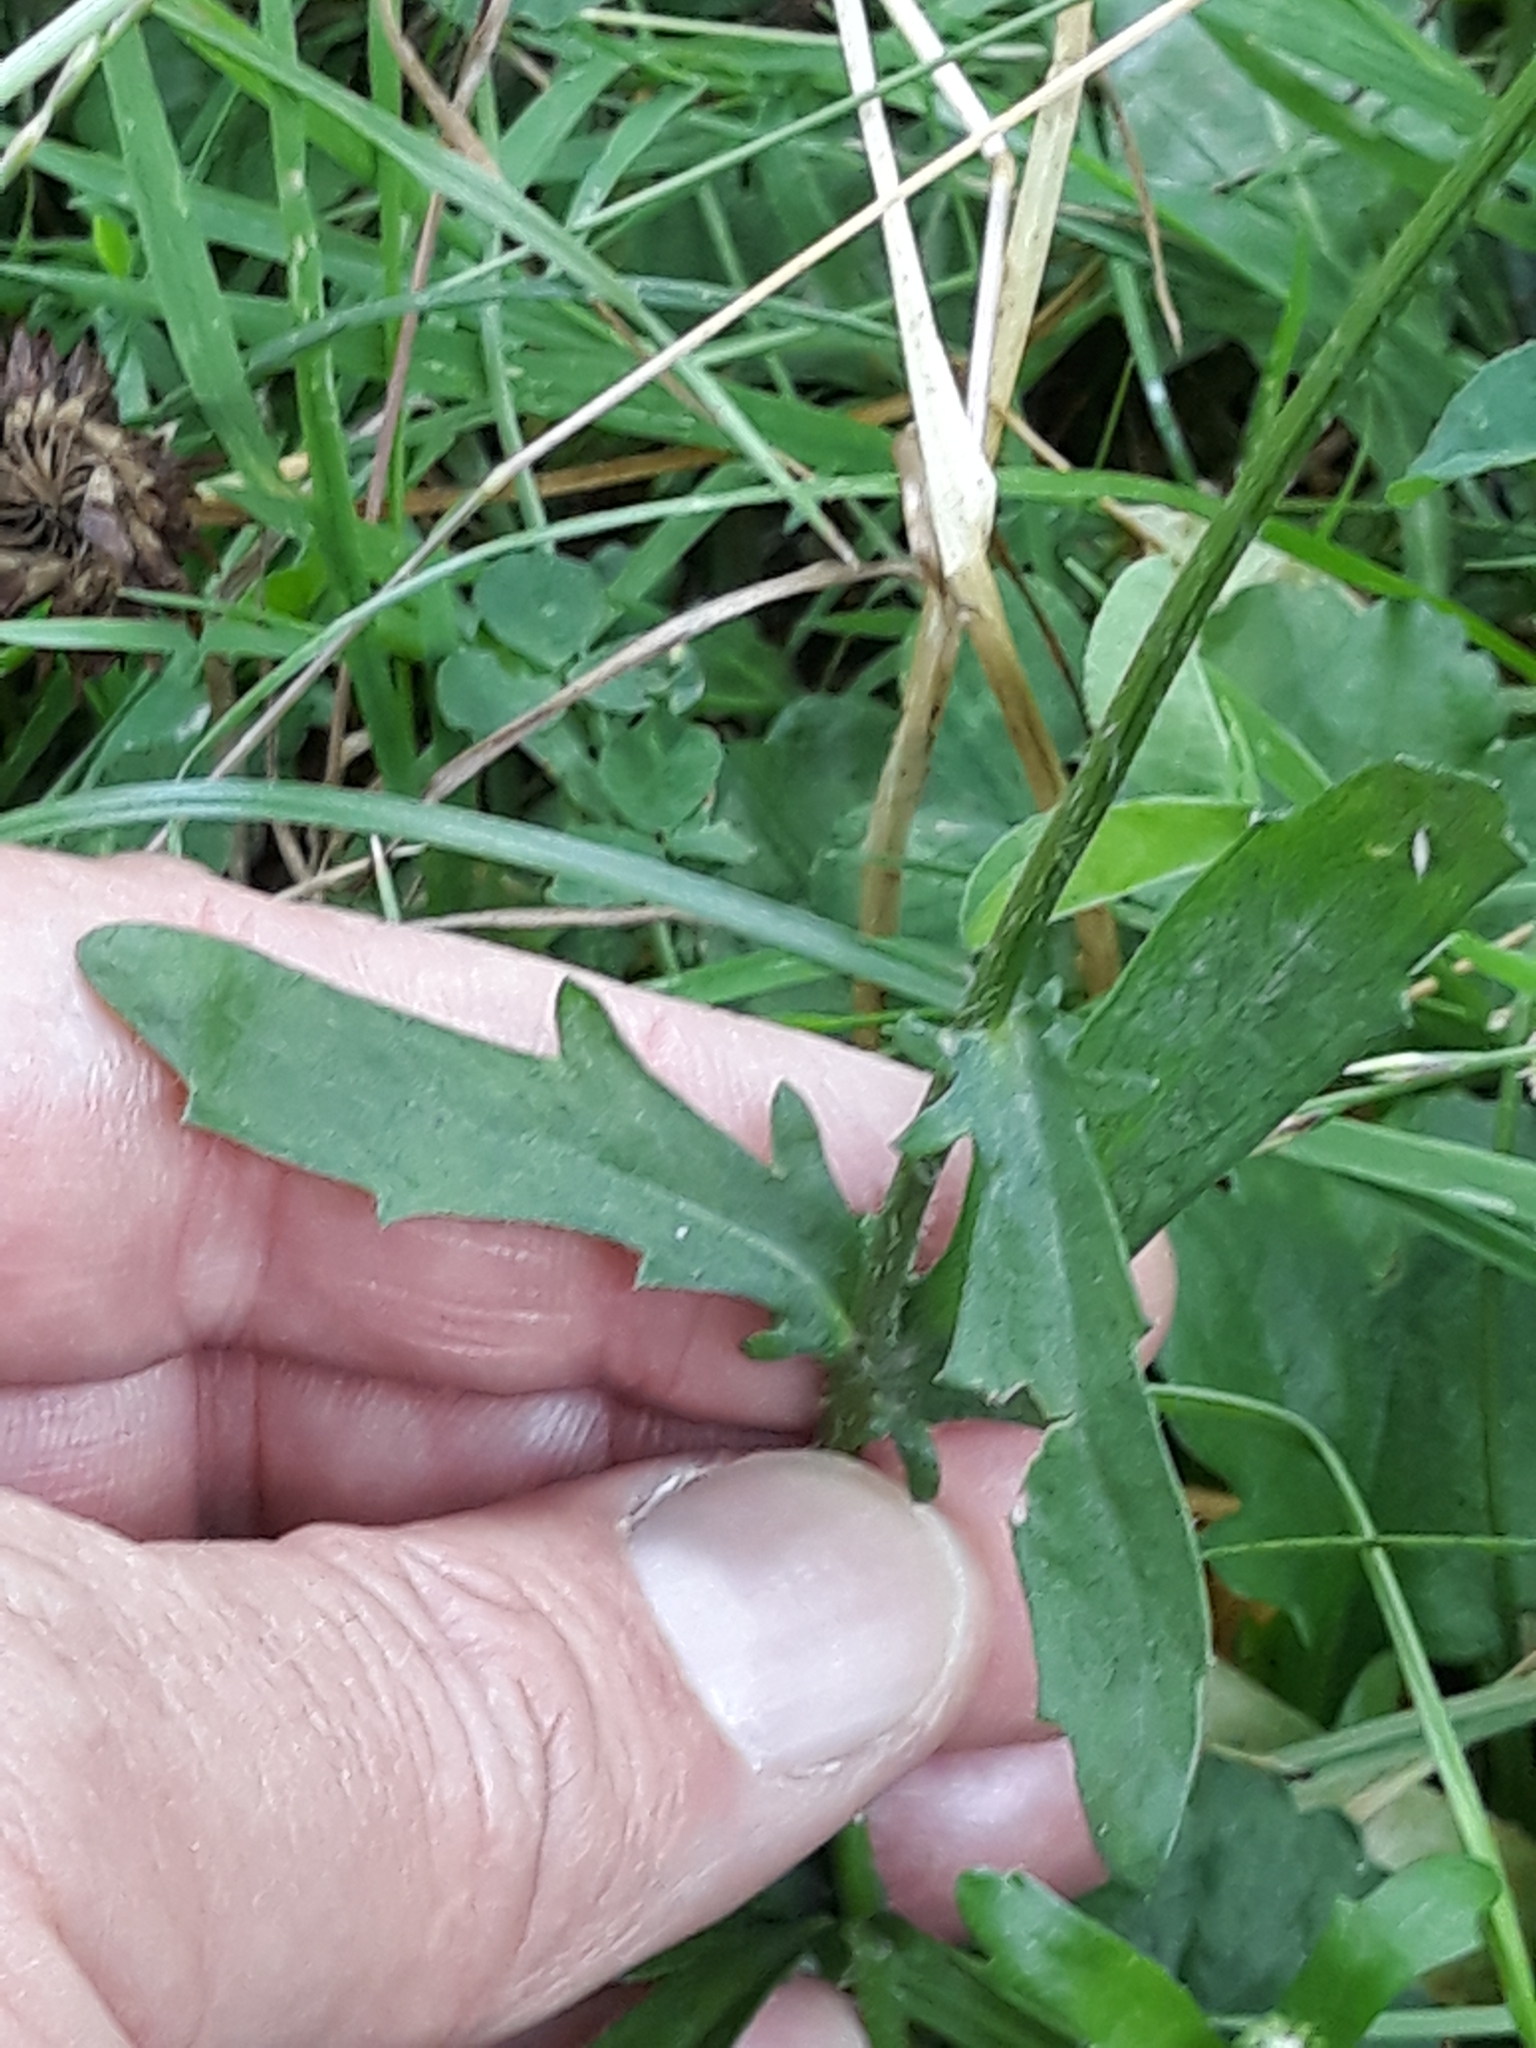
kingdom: Plantae
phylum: Tracheophyta
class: Magnoliopsida
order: Asterales
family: Asteraceae
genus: Leucanthemum
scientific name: Leucanthemum ircutianum
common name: Daisy
